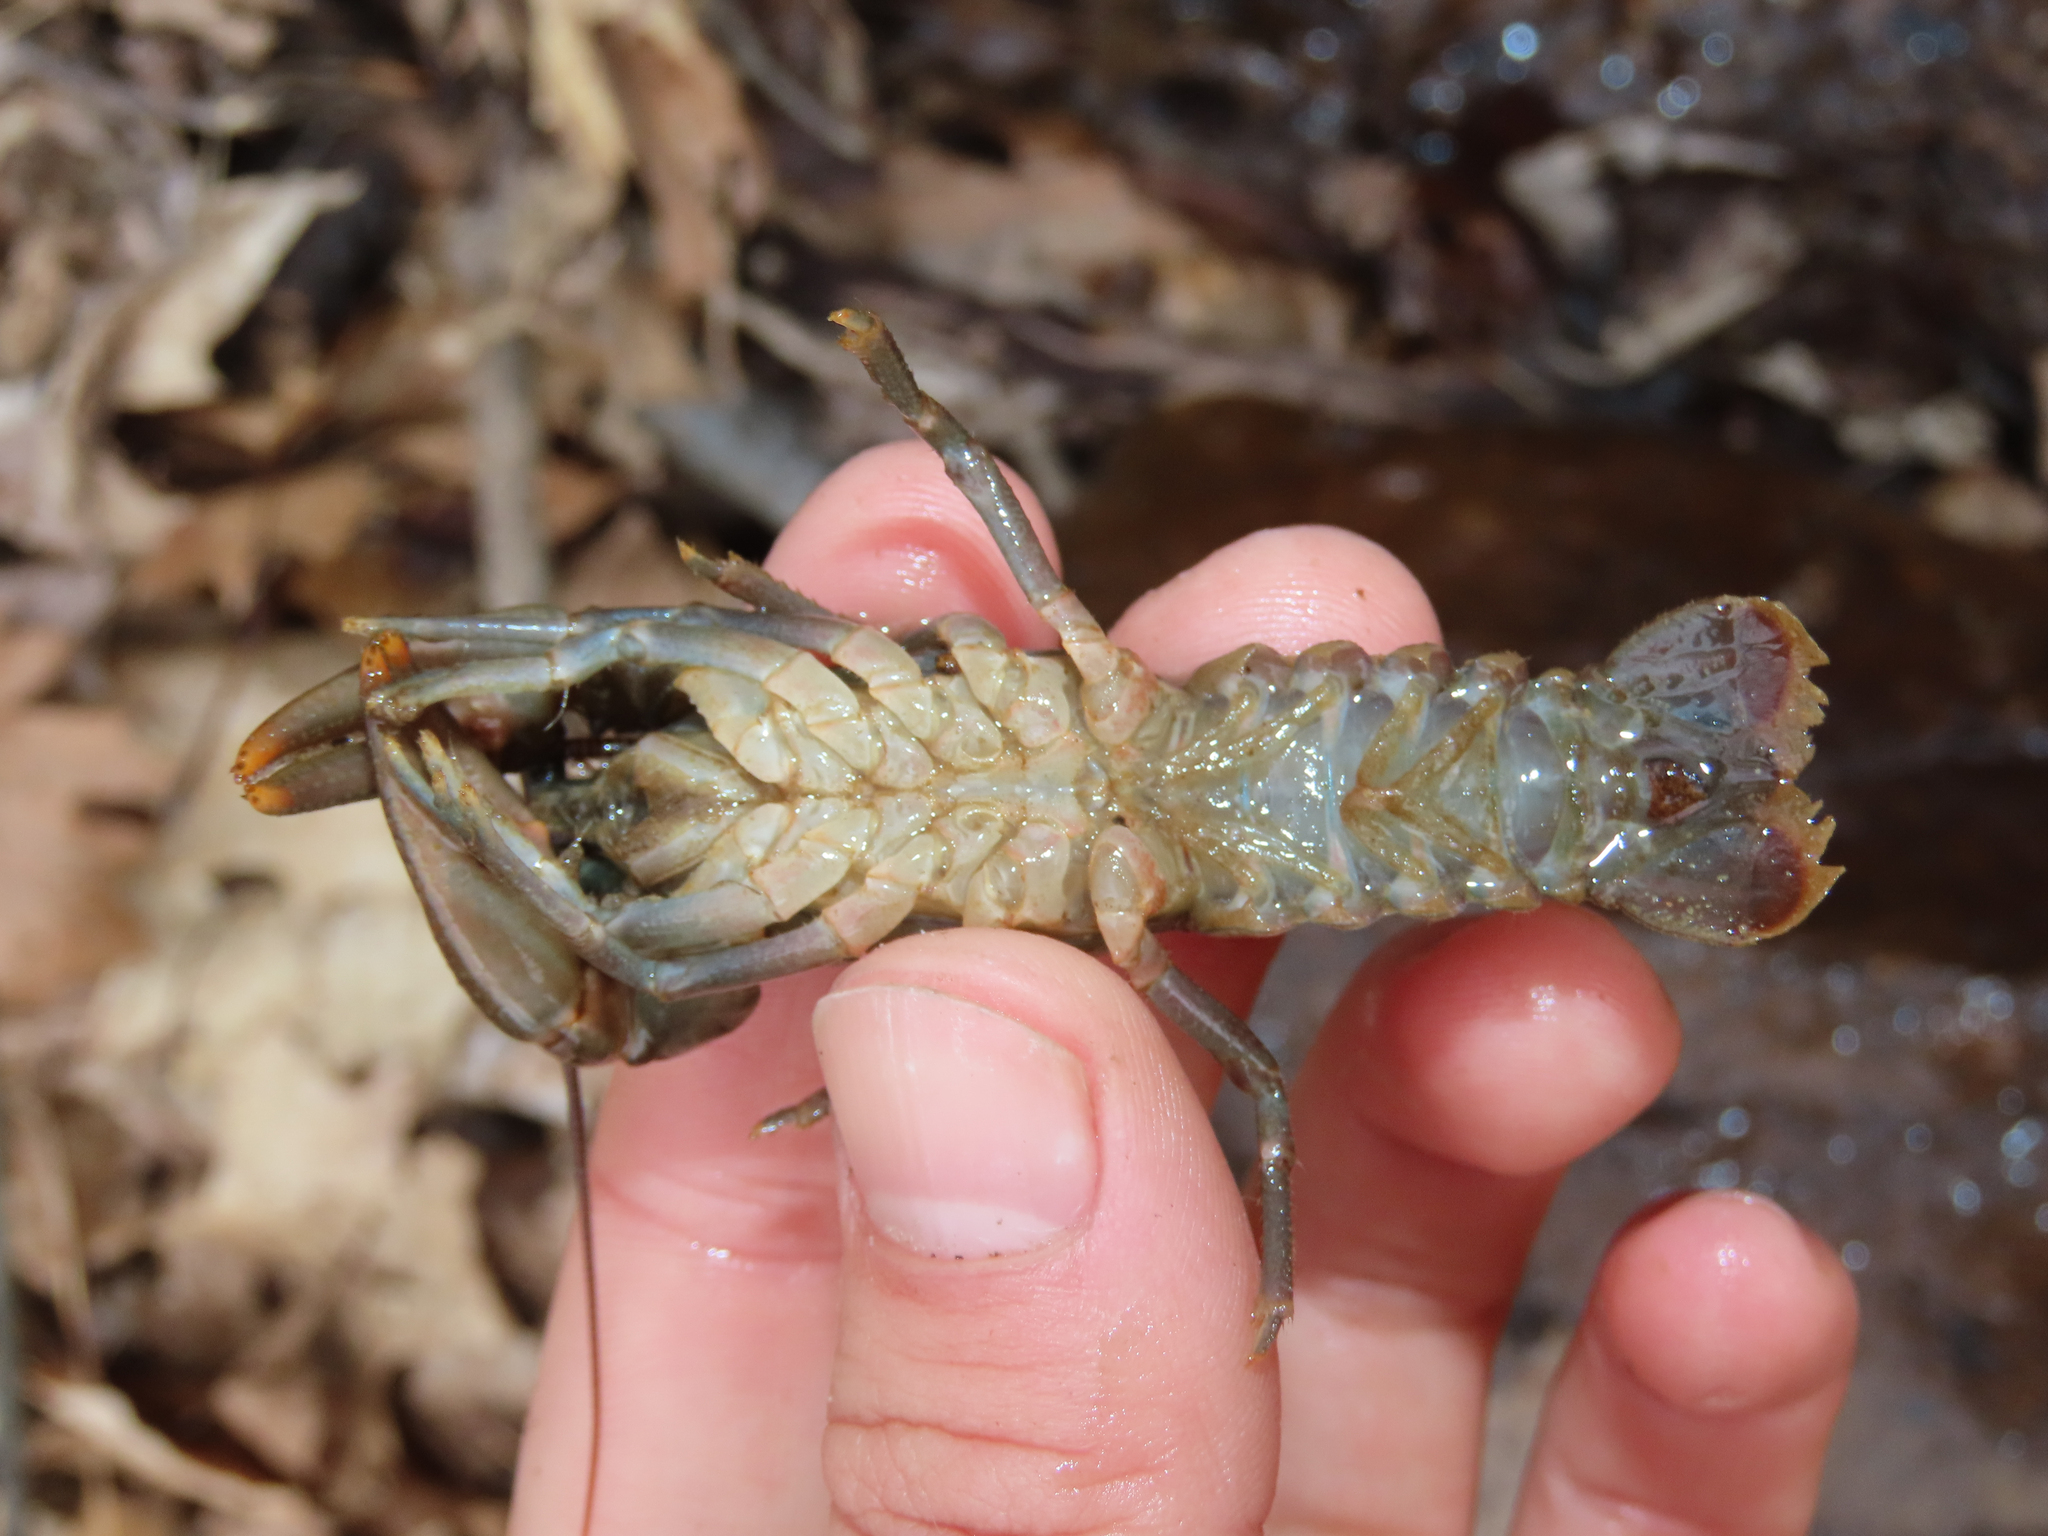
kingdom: Animalia
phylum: Arthropoda
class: Malacostraca
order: Decapoda
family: Cambaridae
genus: Cambarus
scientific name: Cambarus carinirostris
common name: Rock crayfish
